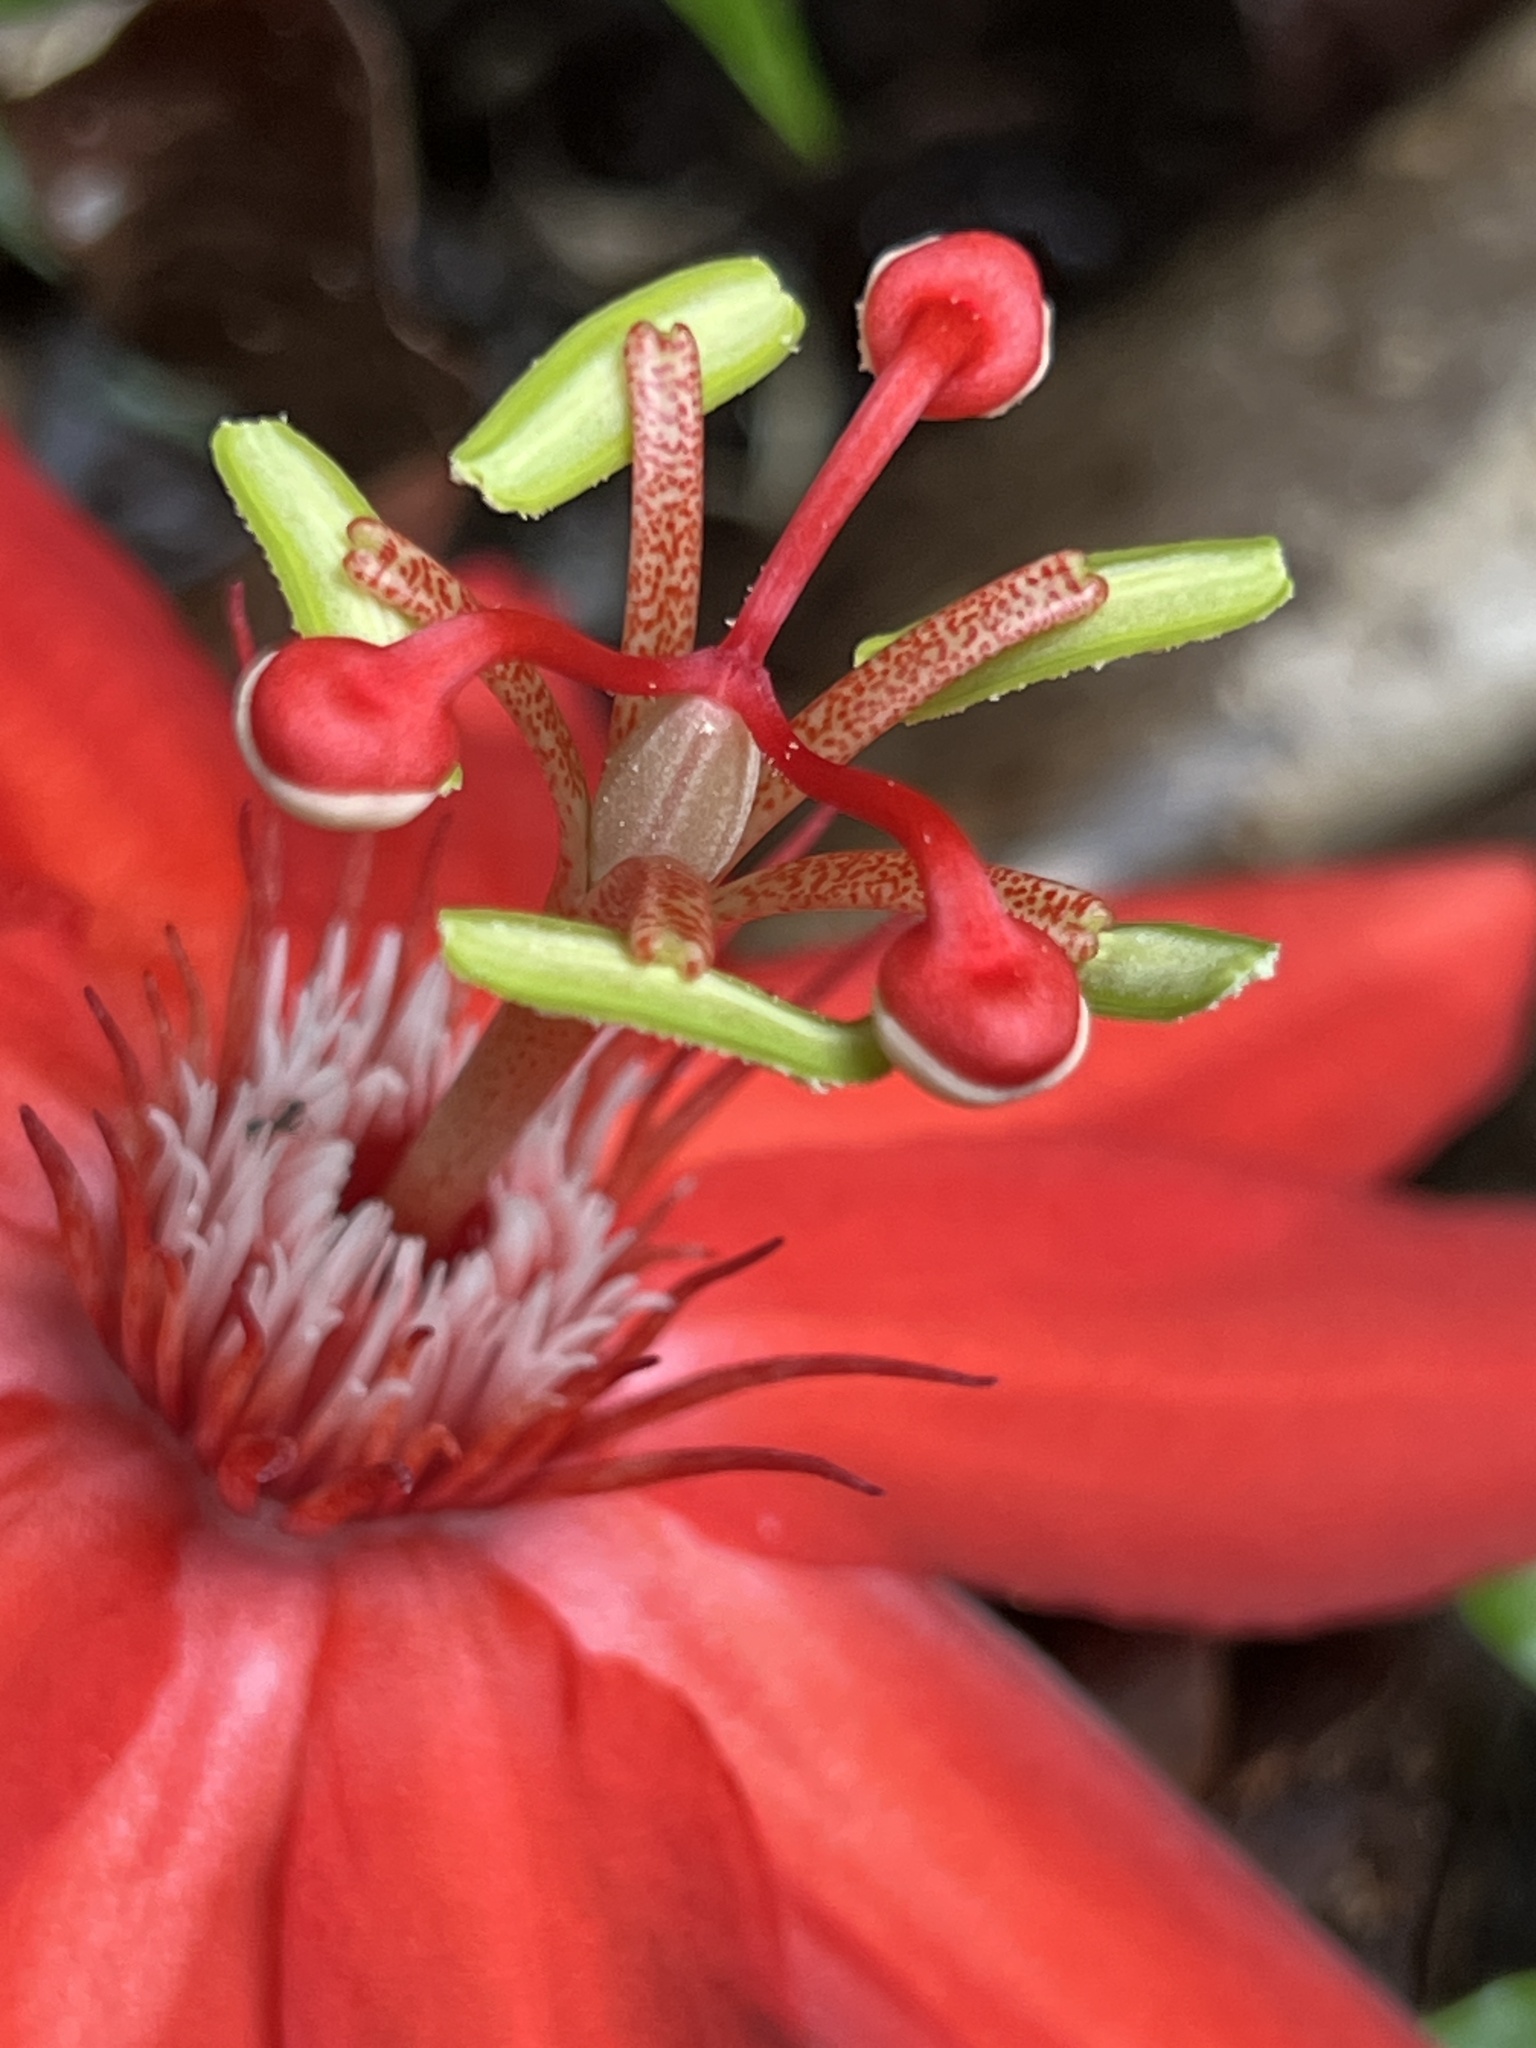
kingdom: Plantae
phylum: Tracheophyta
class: Magnoliopsida
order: Malpighiales
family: Passifloraceae
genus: Passiflora
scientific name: Passiflora vitifolia
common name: Perfumed passionflower
